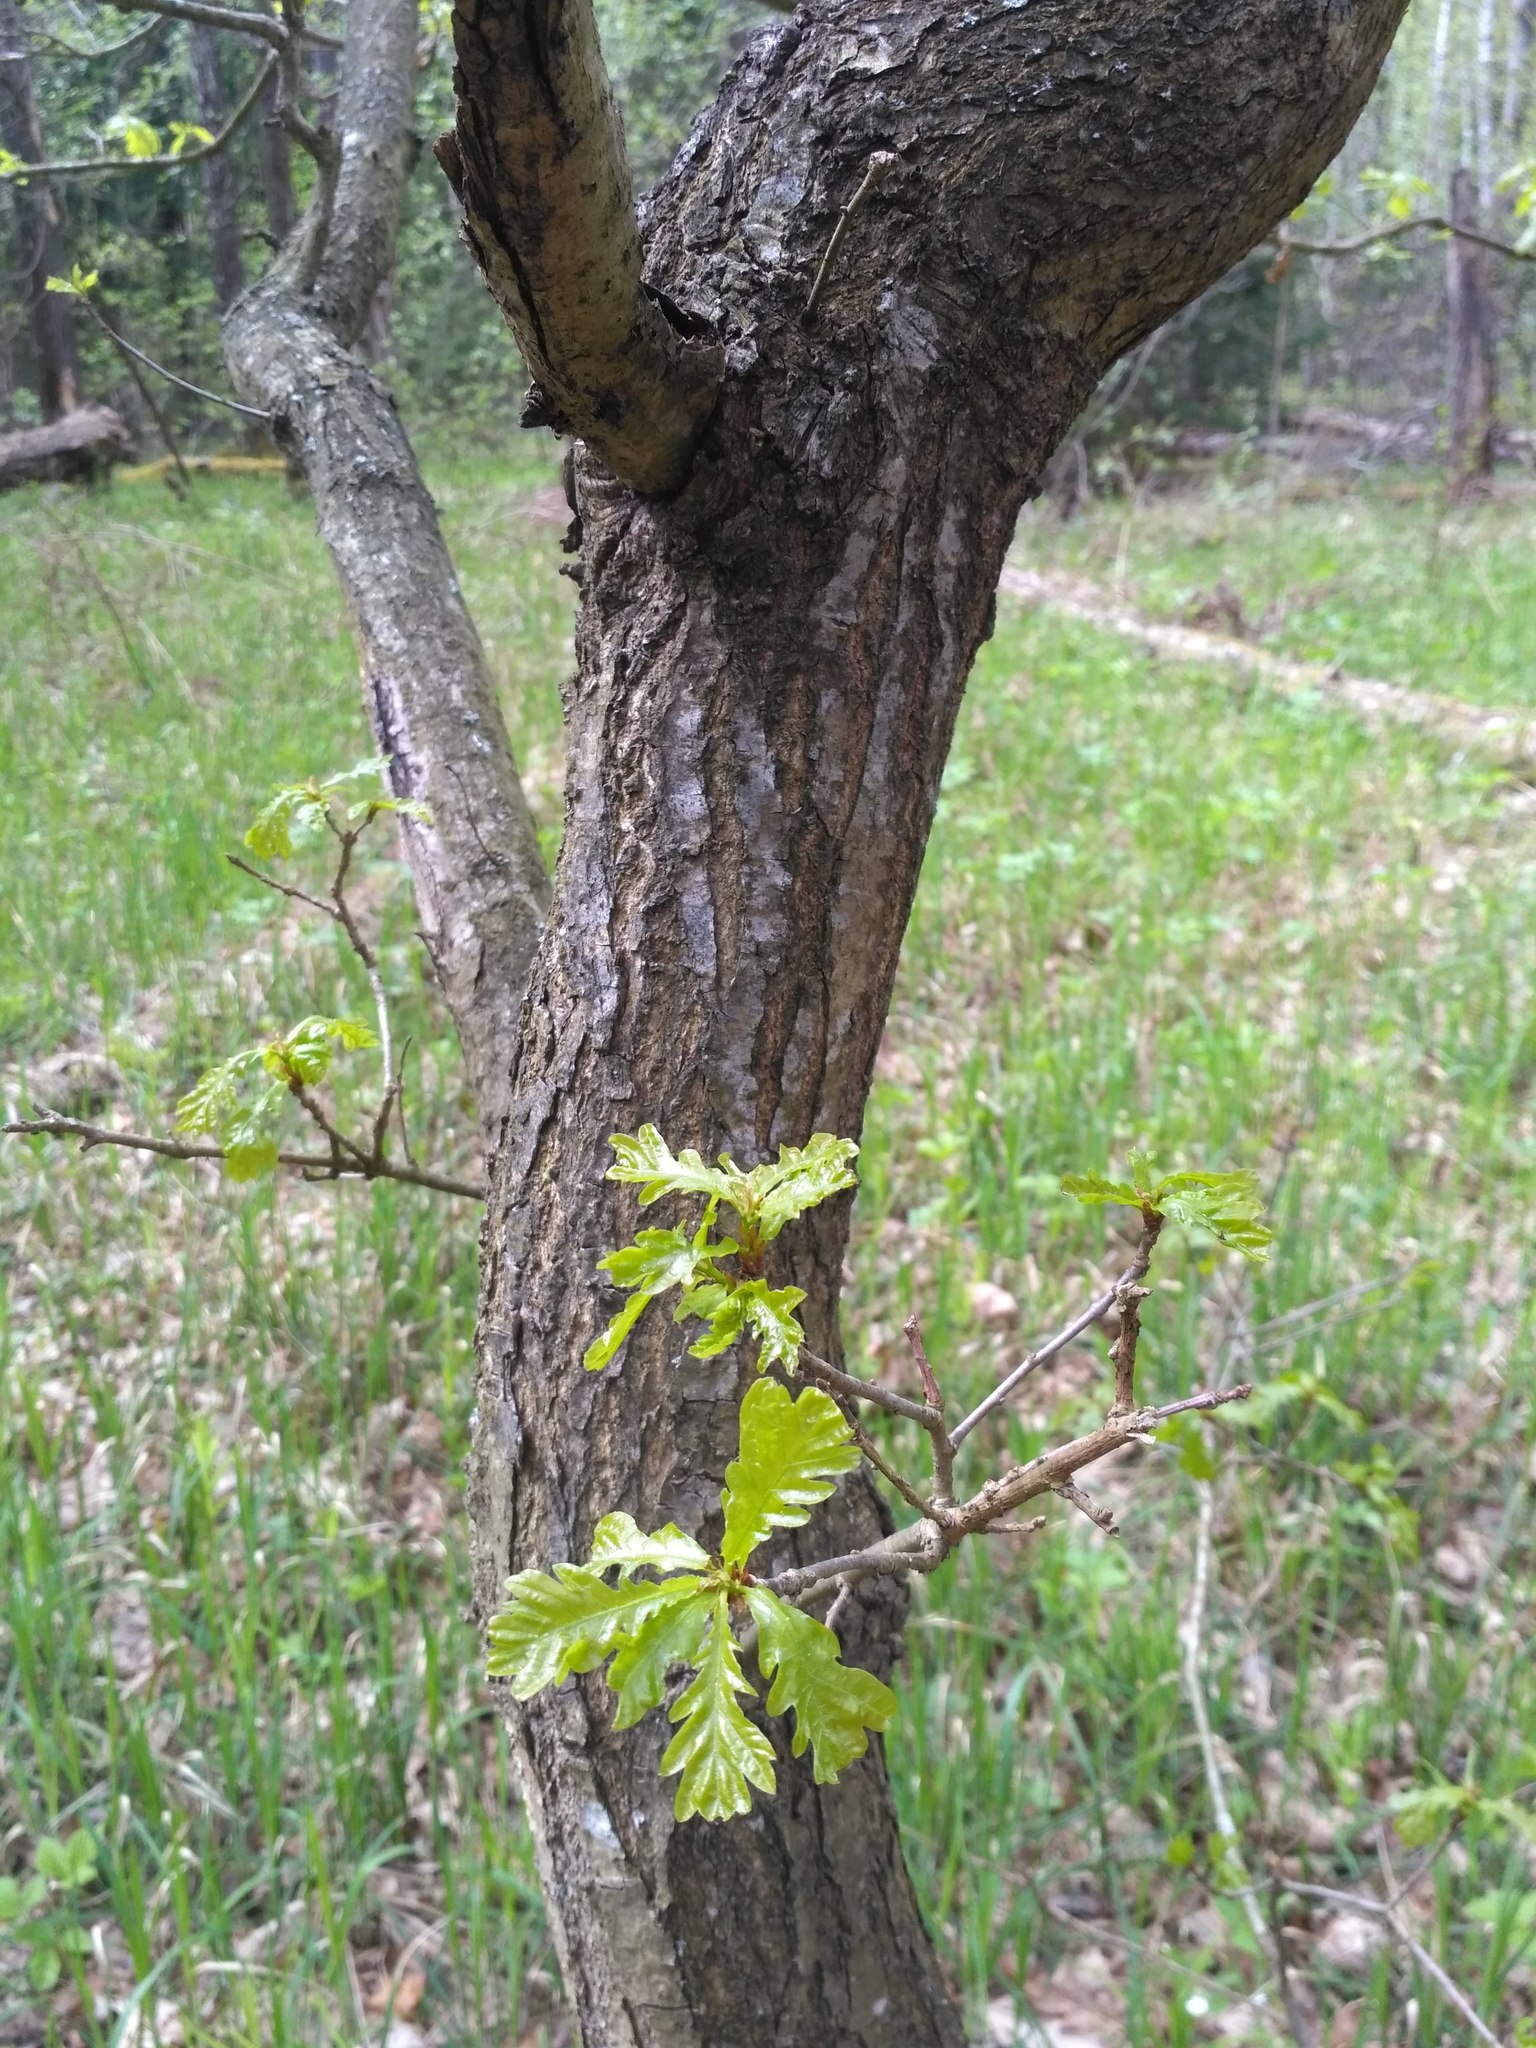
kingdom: Plantae
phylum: Tracheophyta
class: Magnoliopsida
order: Fagales
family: Fagaceae
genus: Quercus
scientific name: Quercus robur
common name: Pedunculate oak
